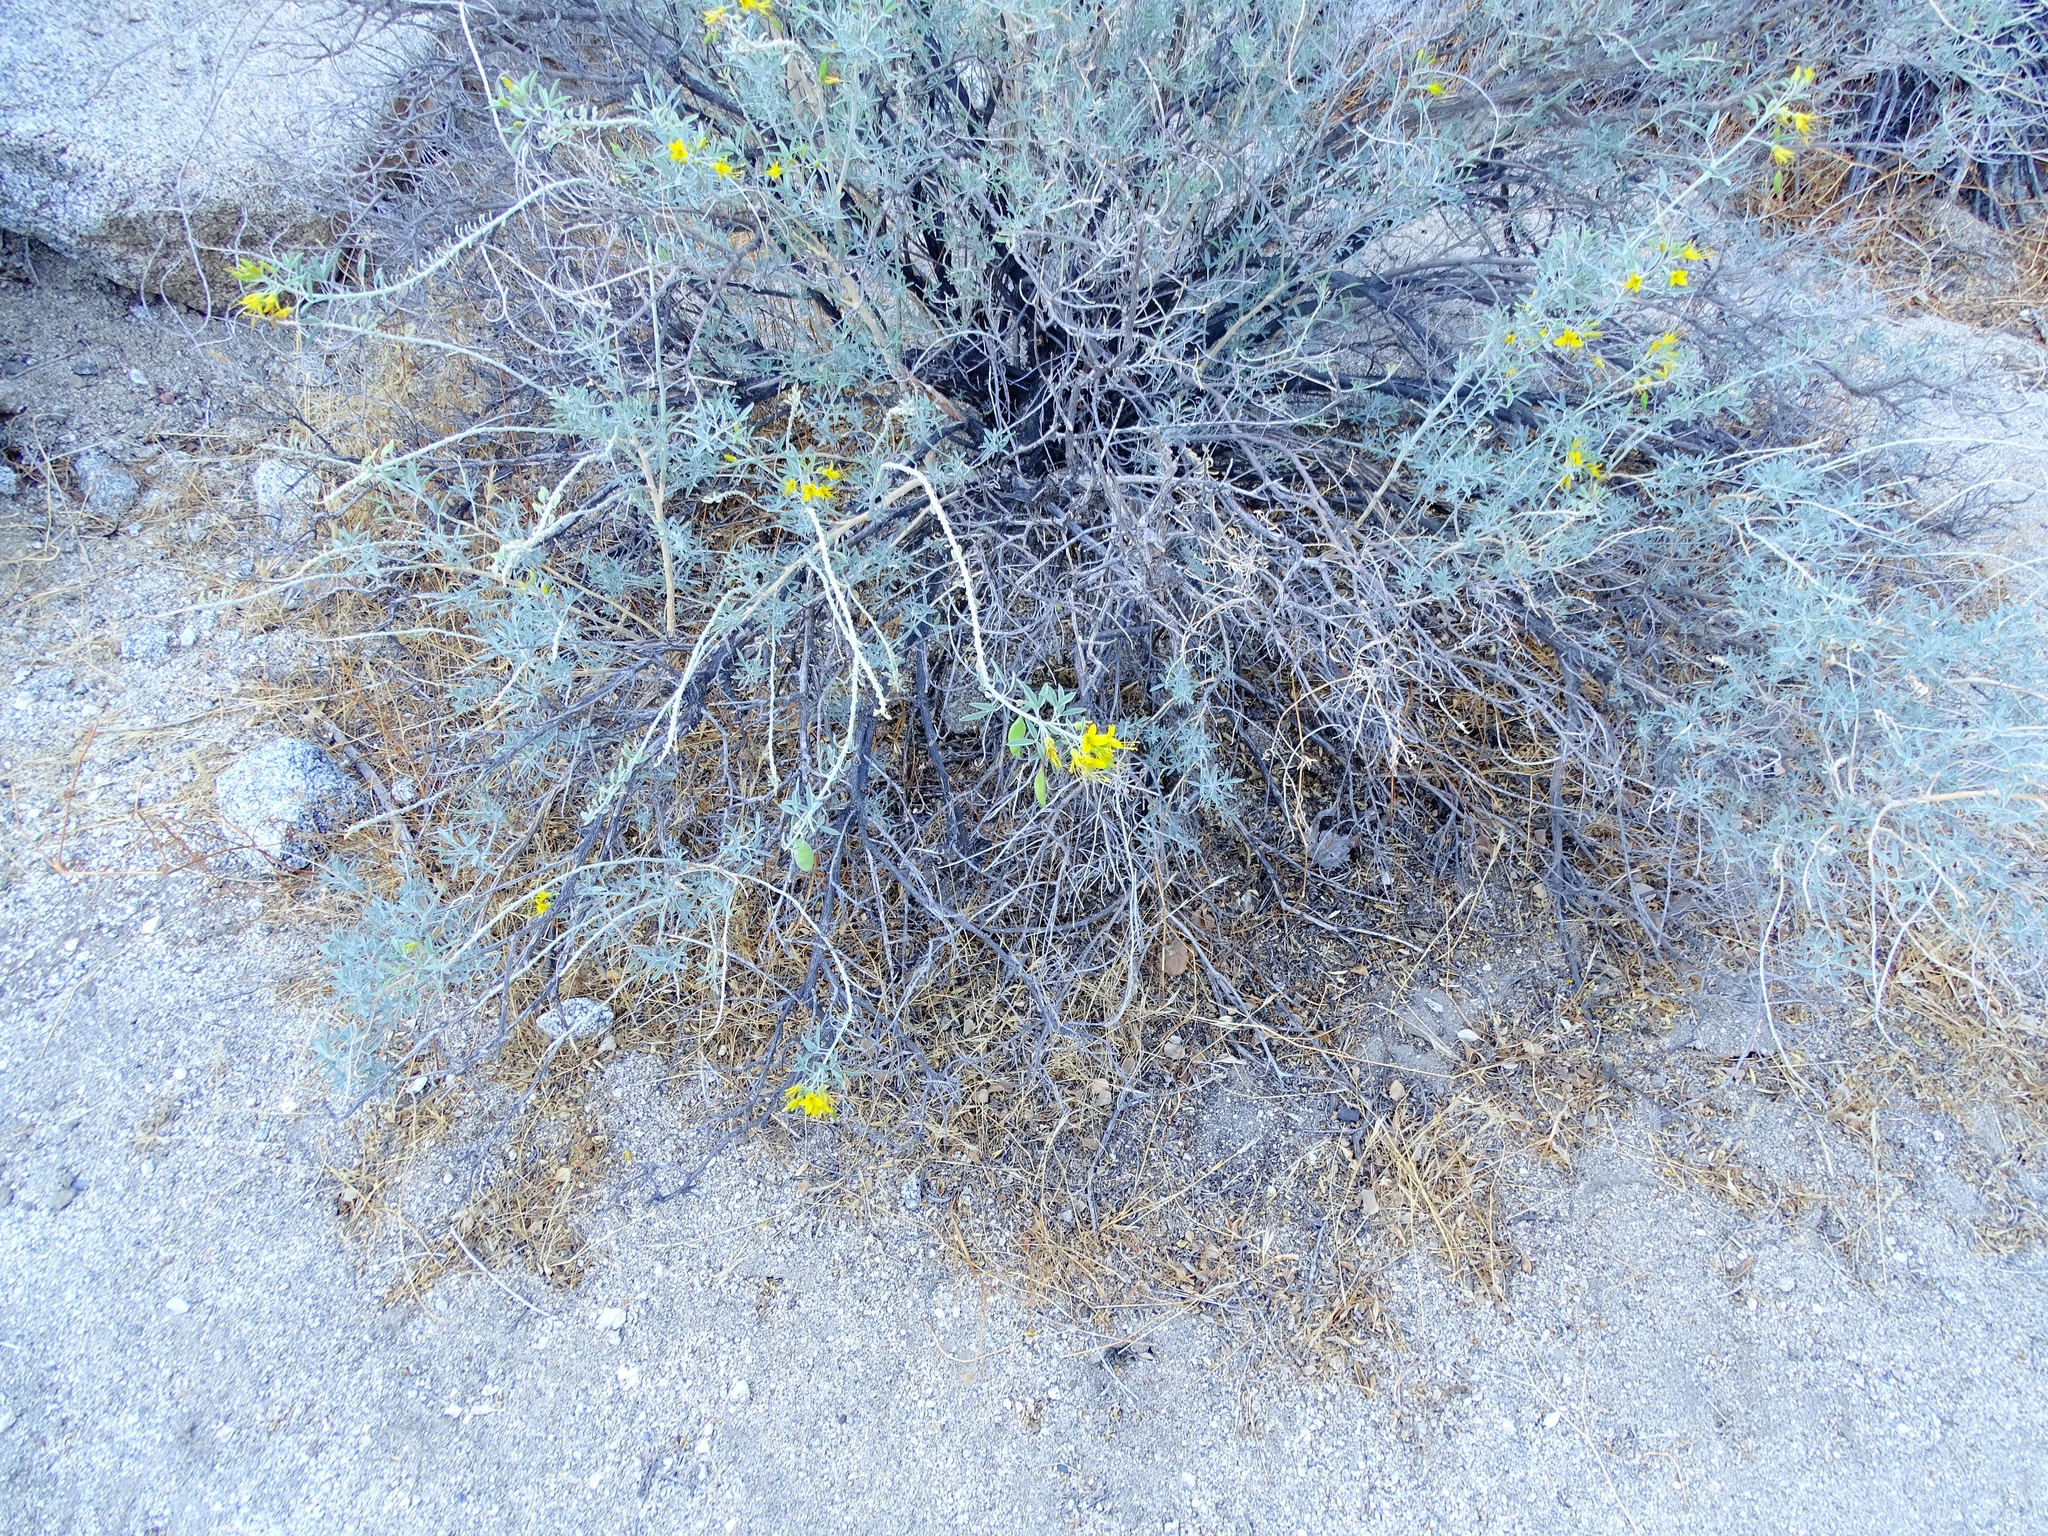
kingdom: Plantae
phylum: Tracheophyta
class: Magnoliopsida
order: Brassicales
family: Cleomaceae
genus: Cleomella
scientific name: Cleomella arborea
